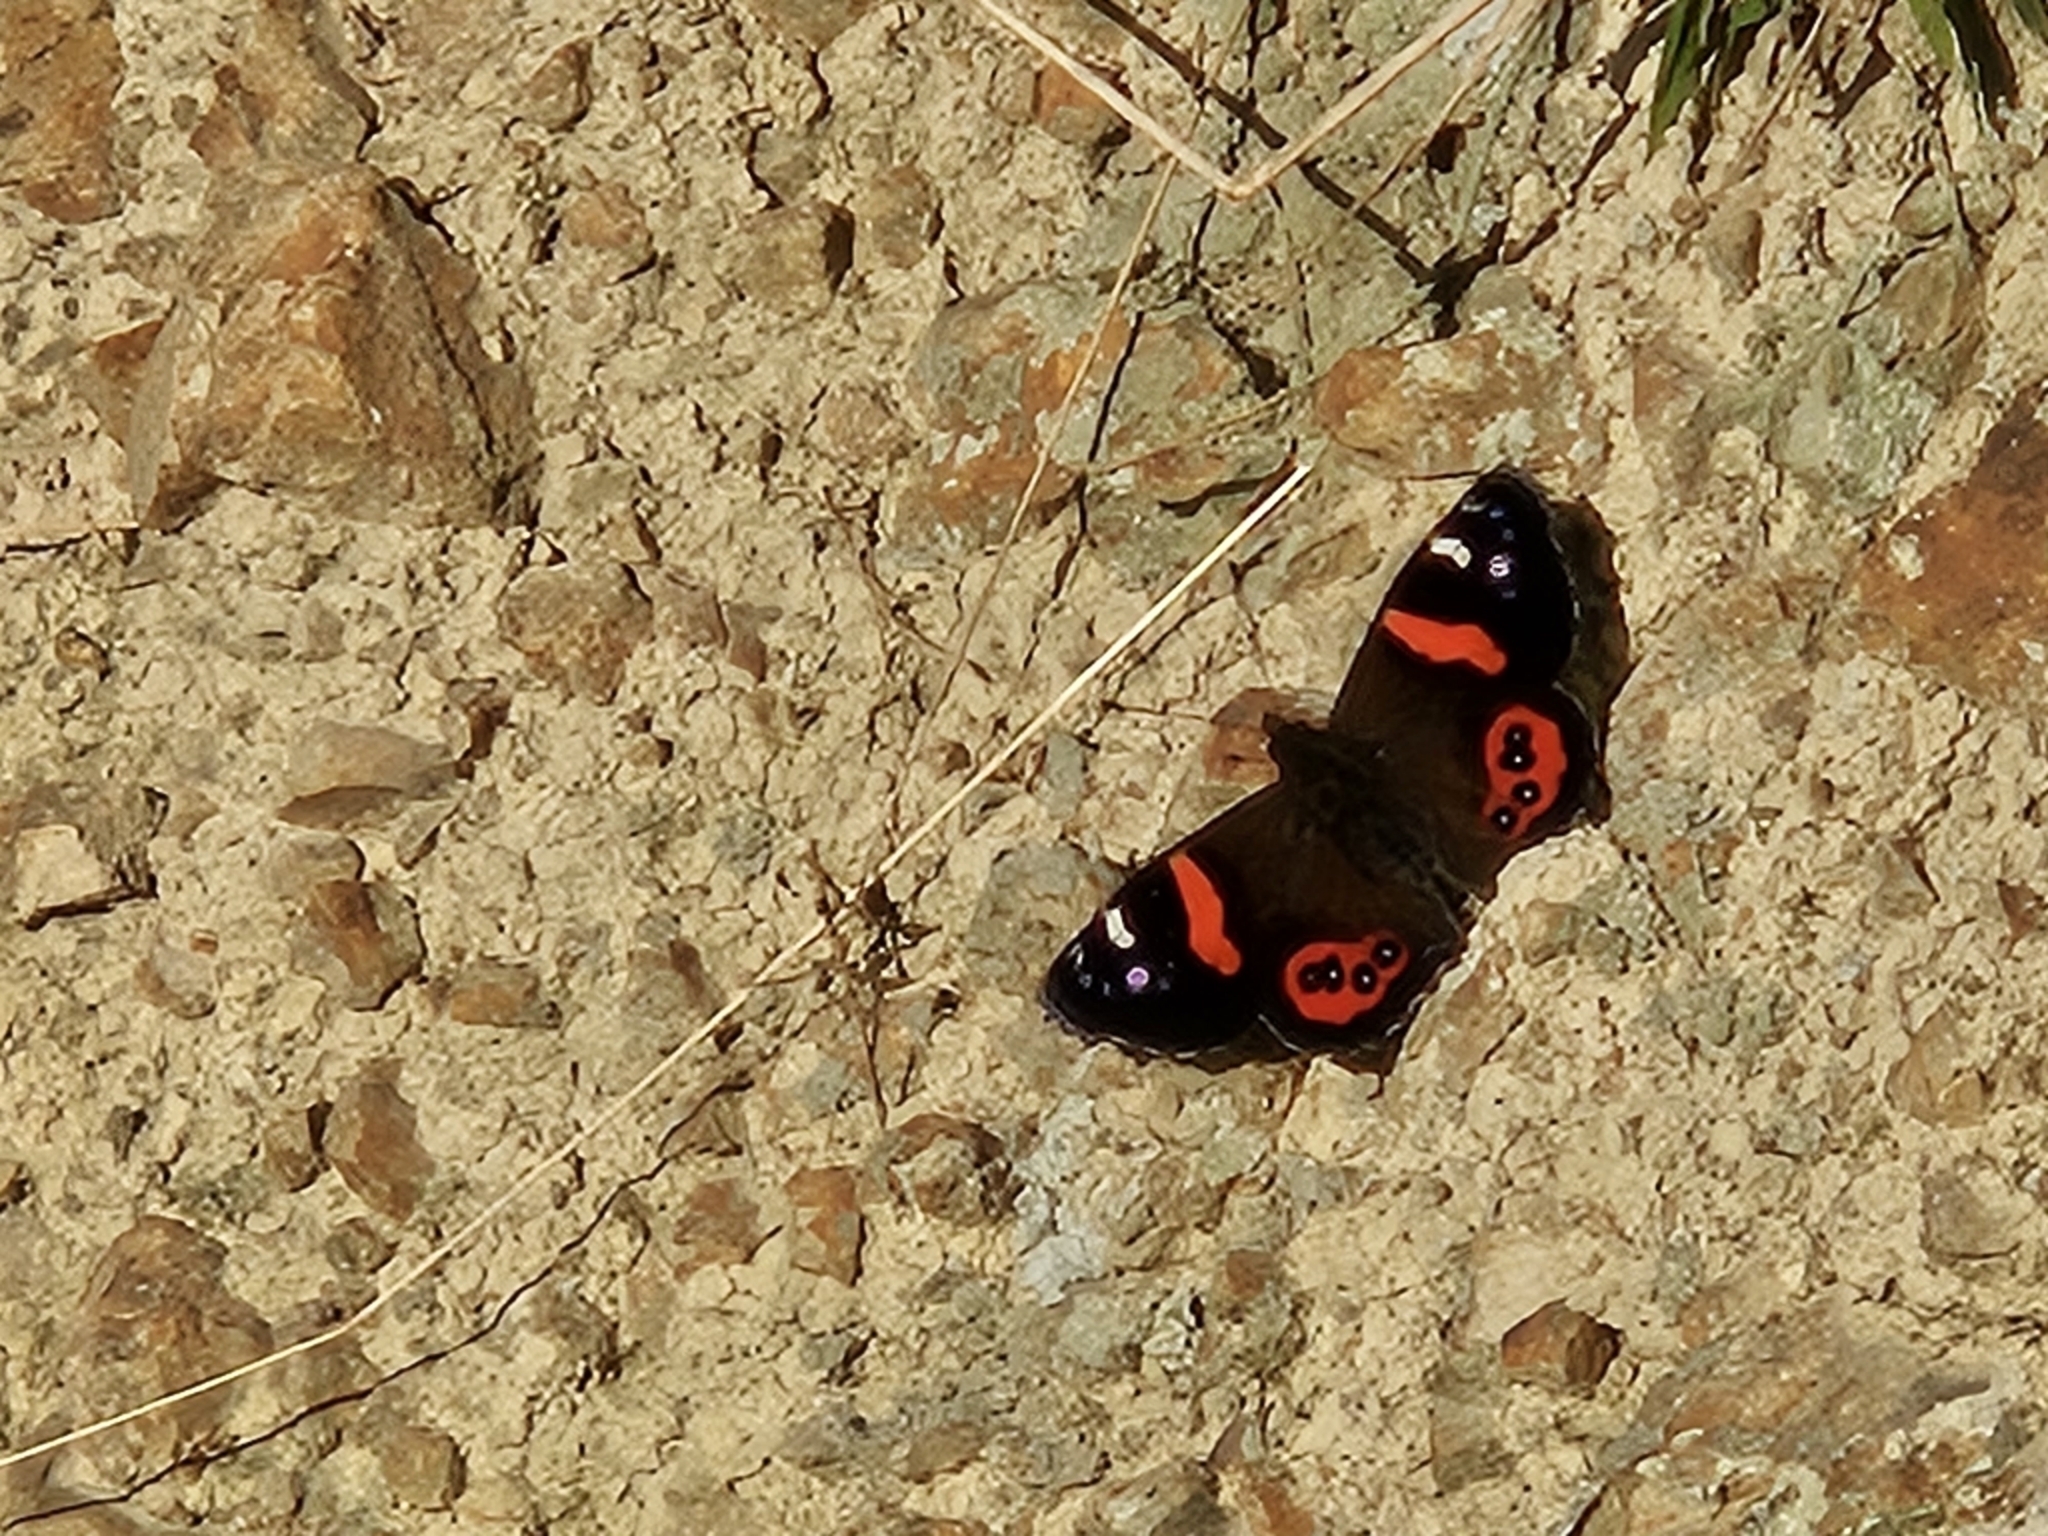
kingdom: Animalia
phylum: Arthropoda
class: Insecta
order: Lepidoptera
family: Nymphalidae
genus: Vanessa
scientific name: Vanessa gonerilla
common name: New zealand red admiral
